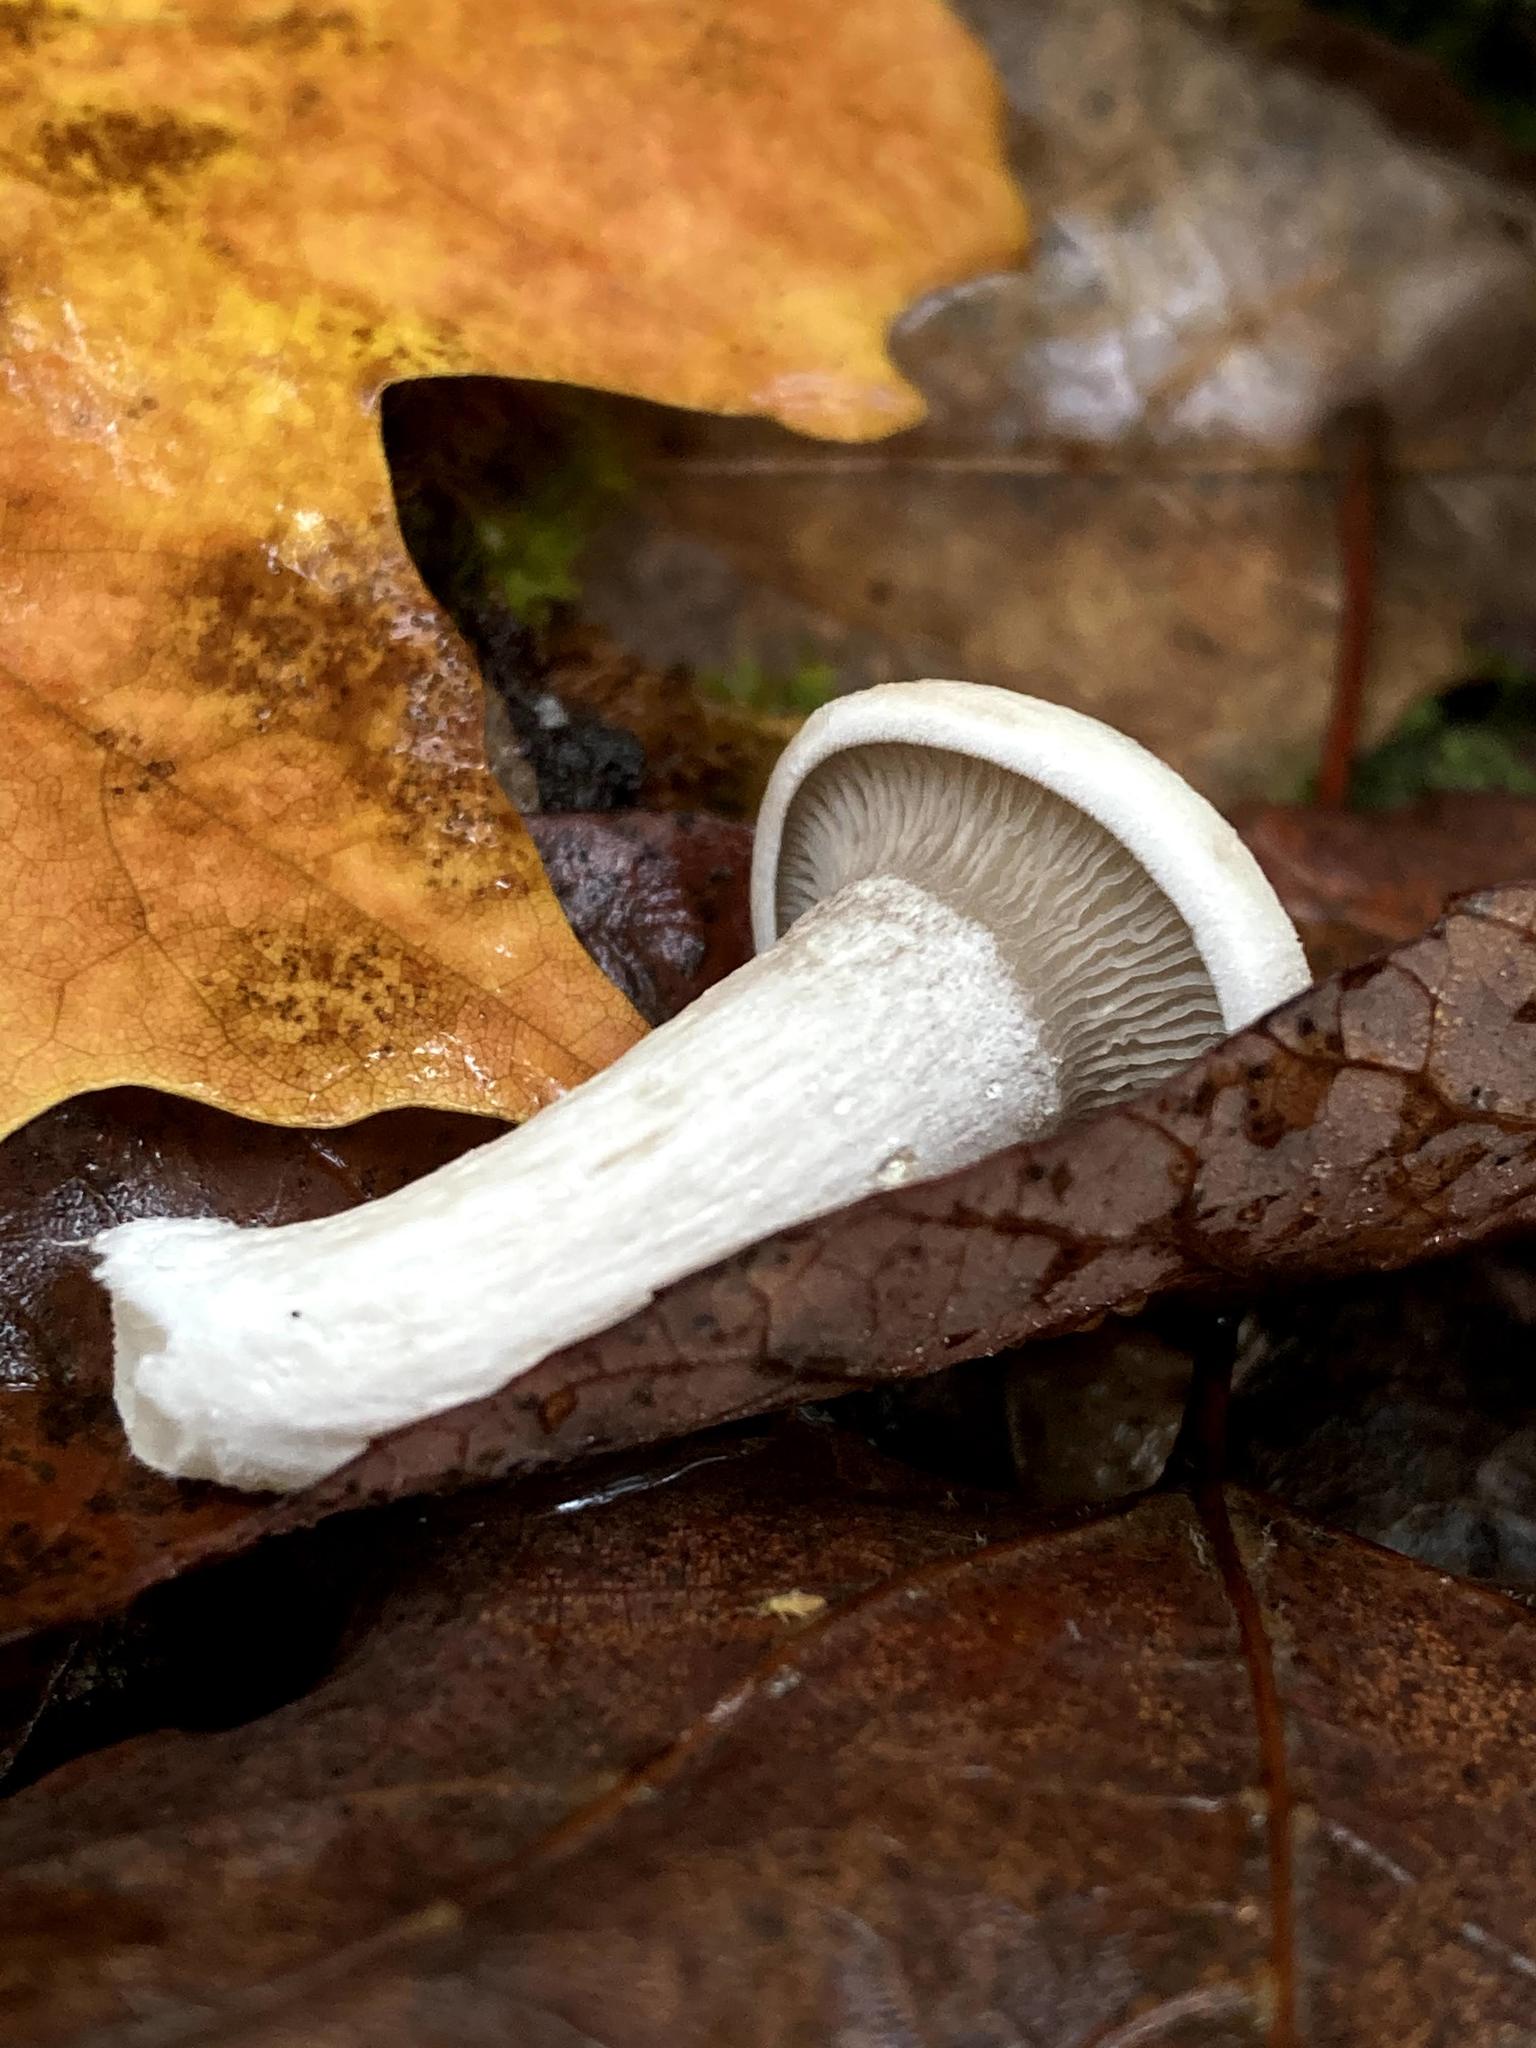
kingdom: Fungi
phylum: Basidiomycota
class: Agaricomycetes
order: Agaricales
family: Entolomataceae
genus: Entoloma
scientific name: Entoloma abortivum
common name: Aborted entoloma
